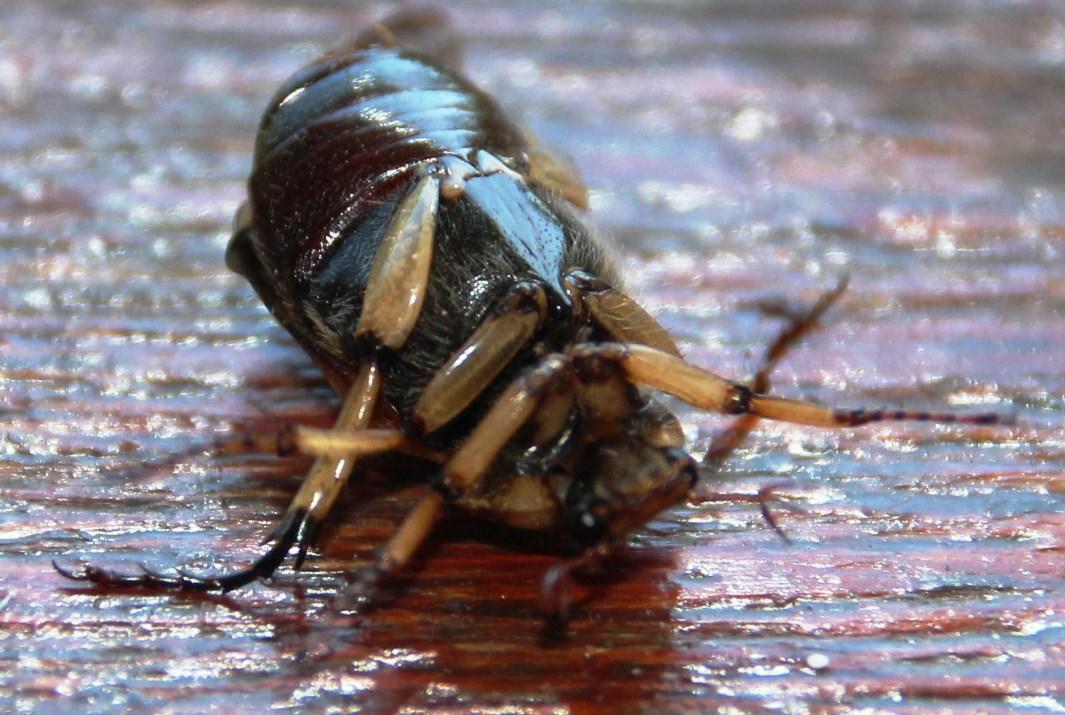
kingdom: Animalia
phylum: Arthropoda
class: Insecta
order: Coleoptera
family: Scarabaeidae
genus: Stripsipher
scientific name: Stripsipher zebra
